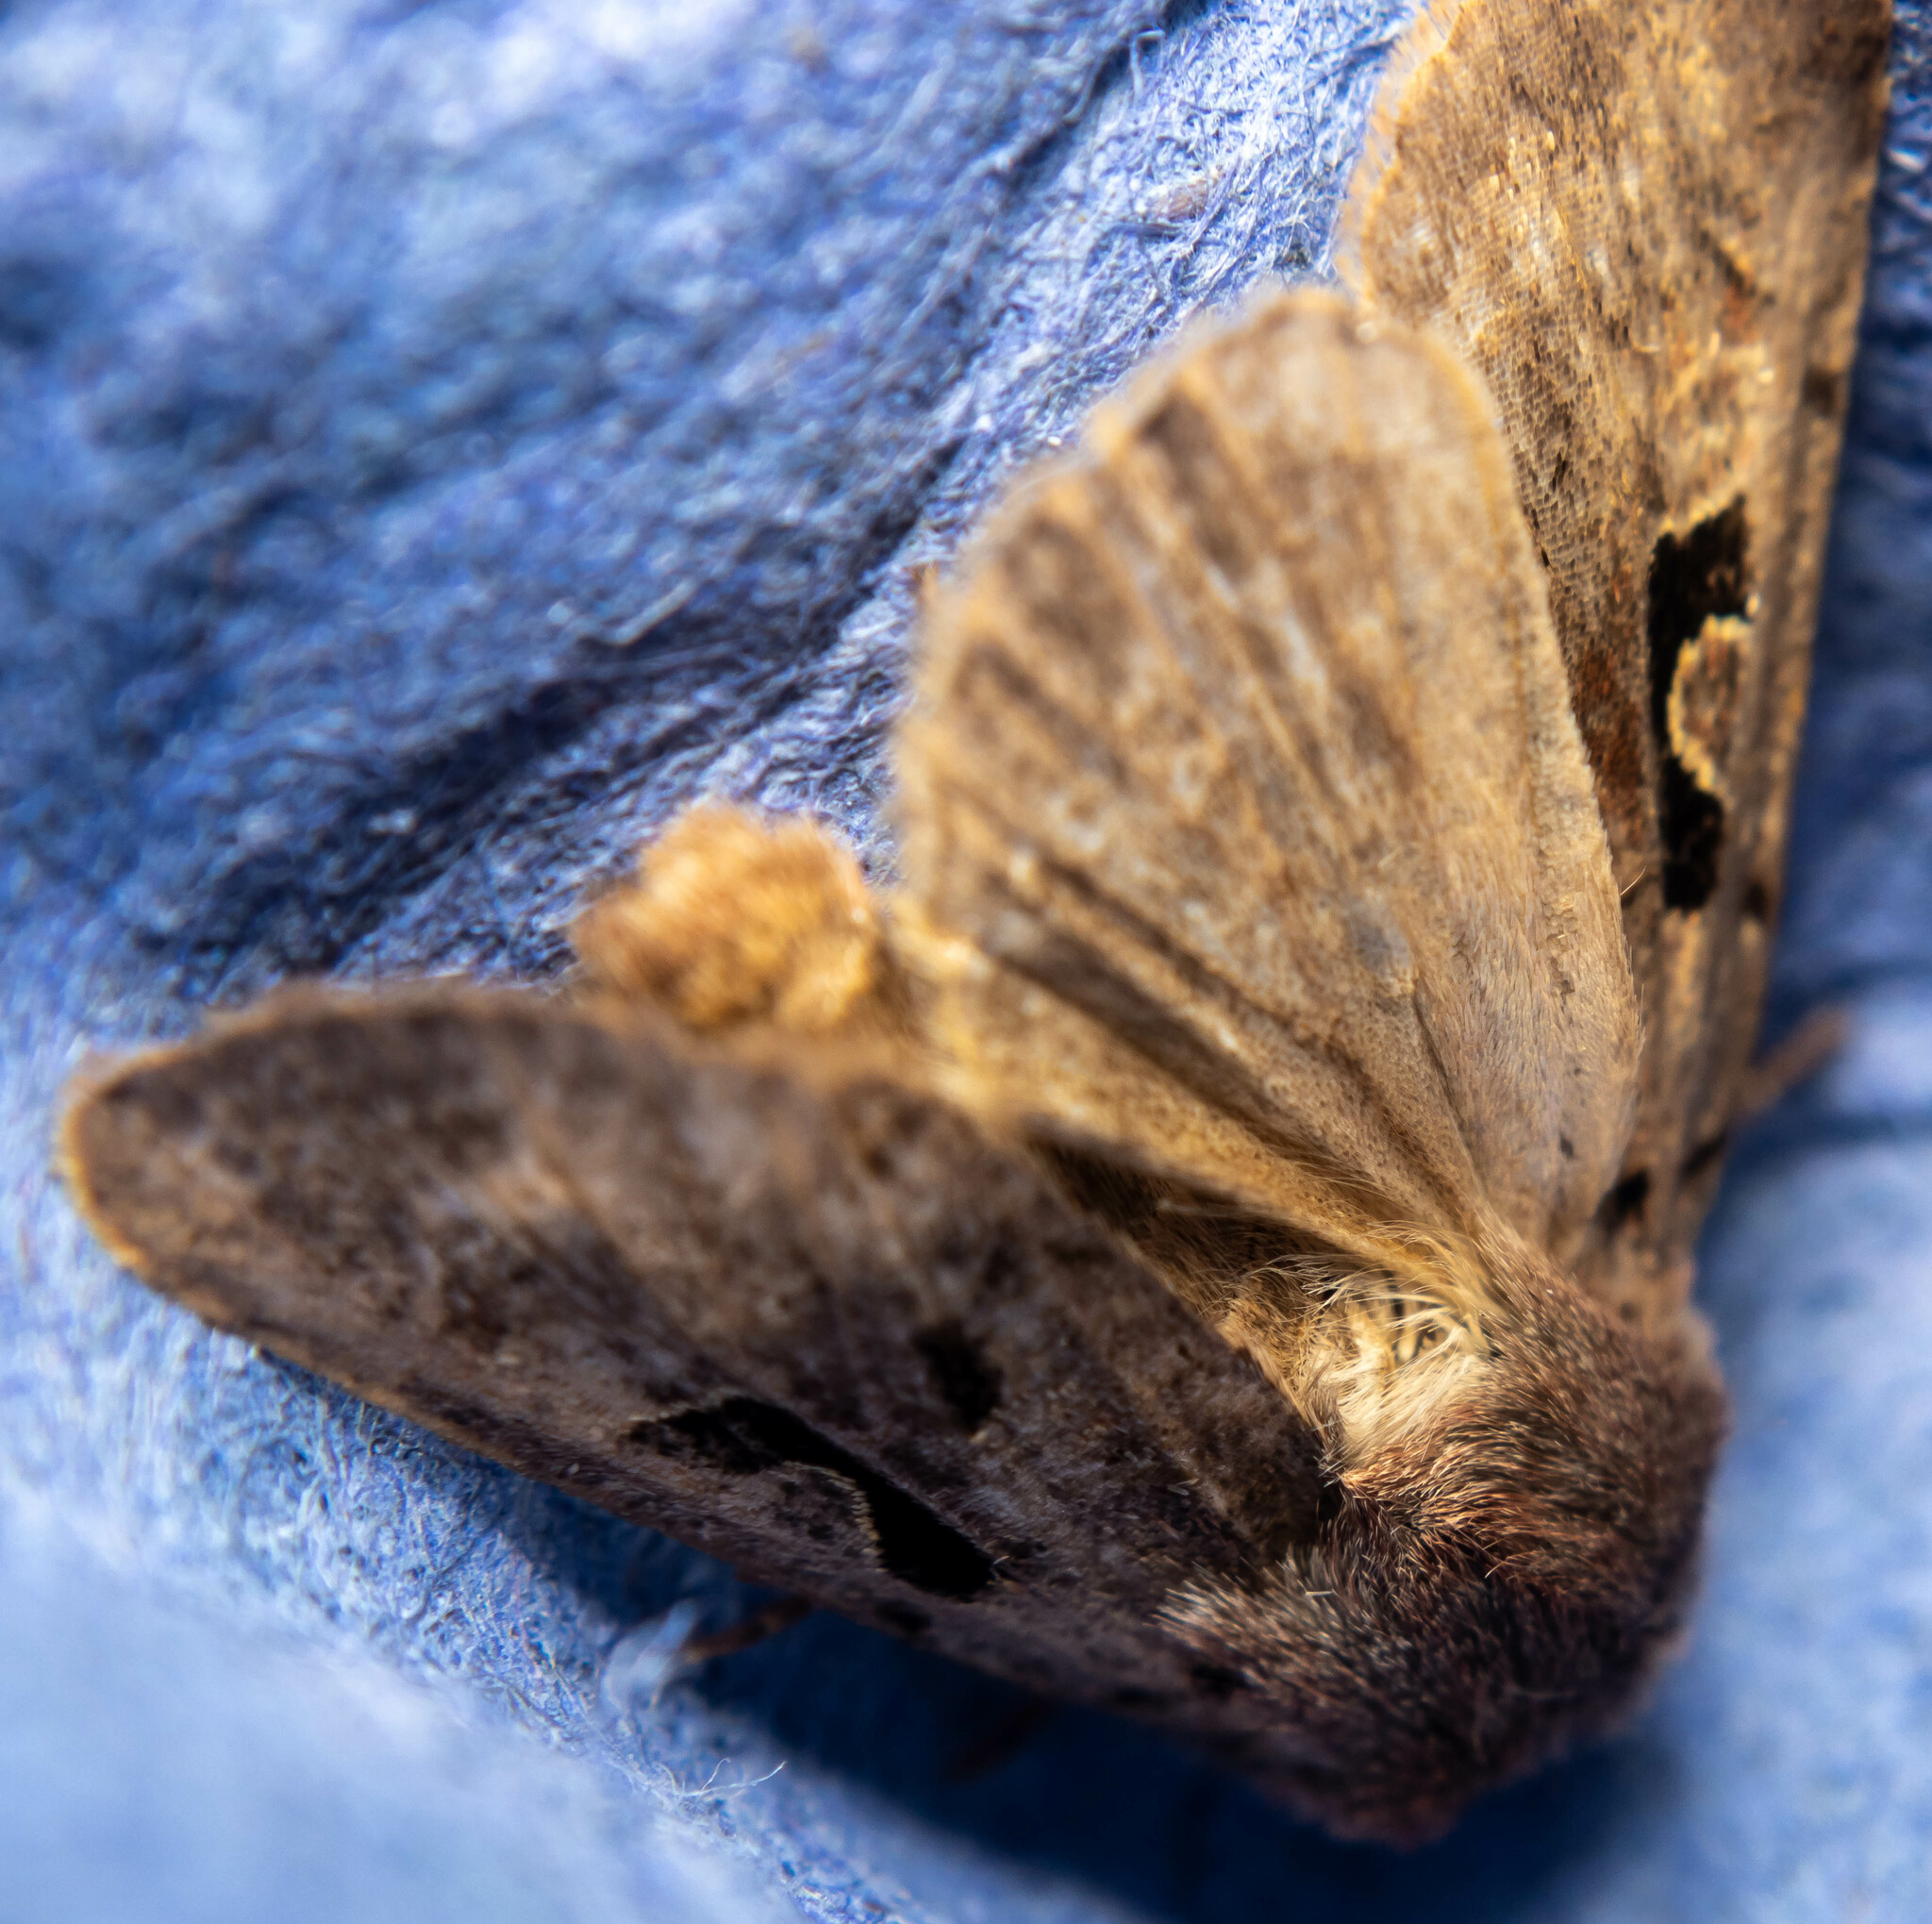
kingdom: Animalia
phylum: Arthropoda
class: Insecta
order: Lepidoptera
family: Noctuidae
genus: Orthosia
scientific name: Orthosia gothica
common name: Hebrew character
